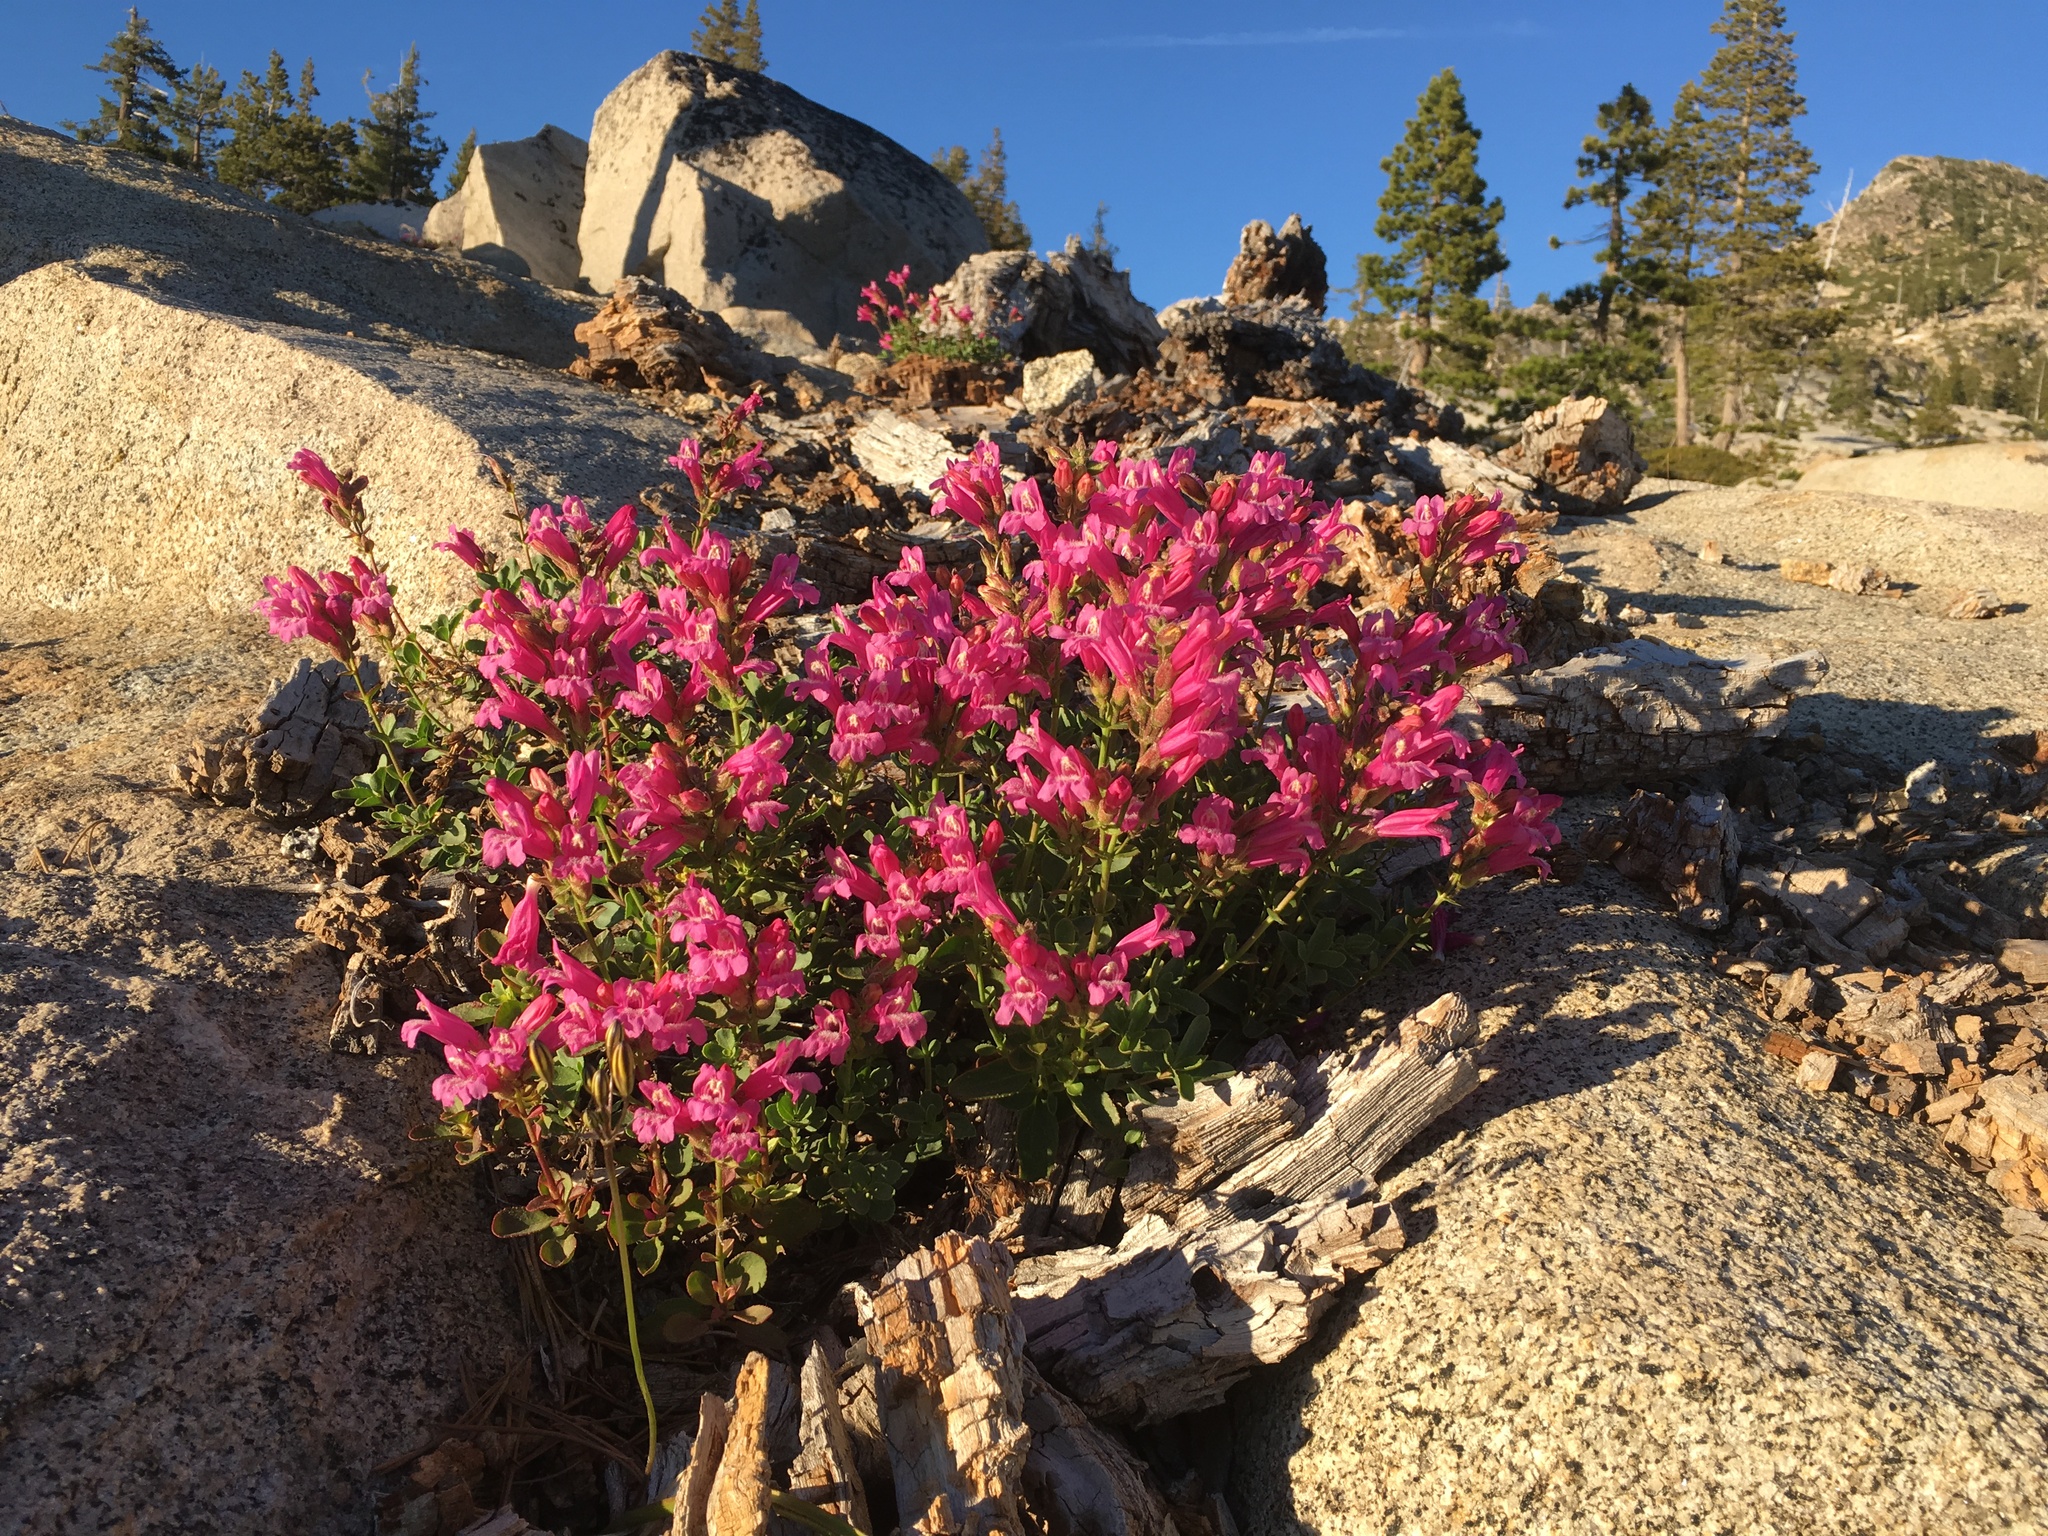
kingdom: Plantae
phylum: Tracheophyta
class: Magnoliopsida
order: Lamiales
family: Plantaginaceae
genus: Penstemon
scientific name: Penstemon newberryi
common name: Mountain-pride
